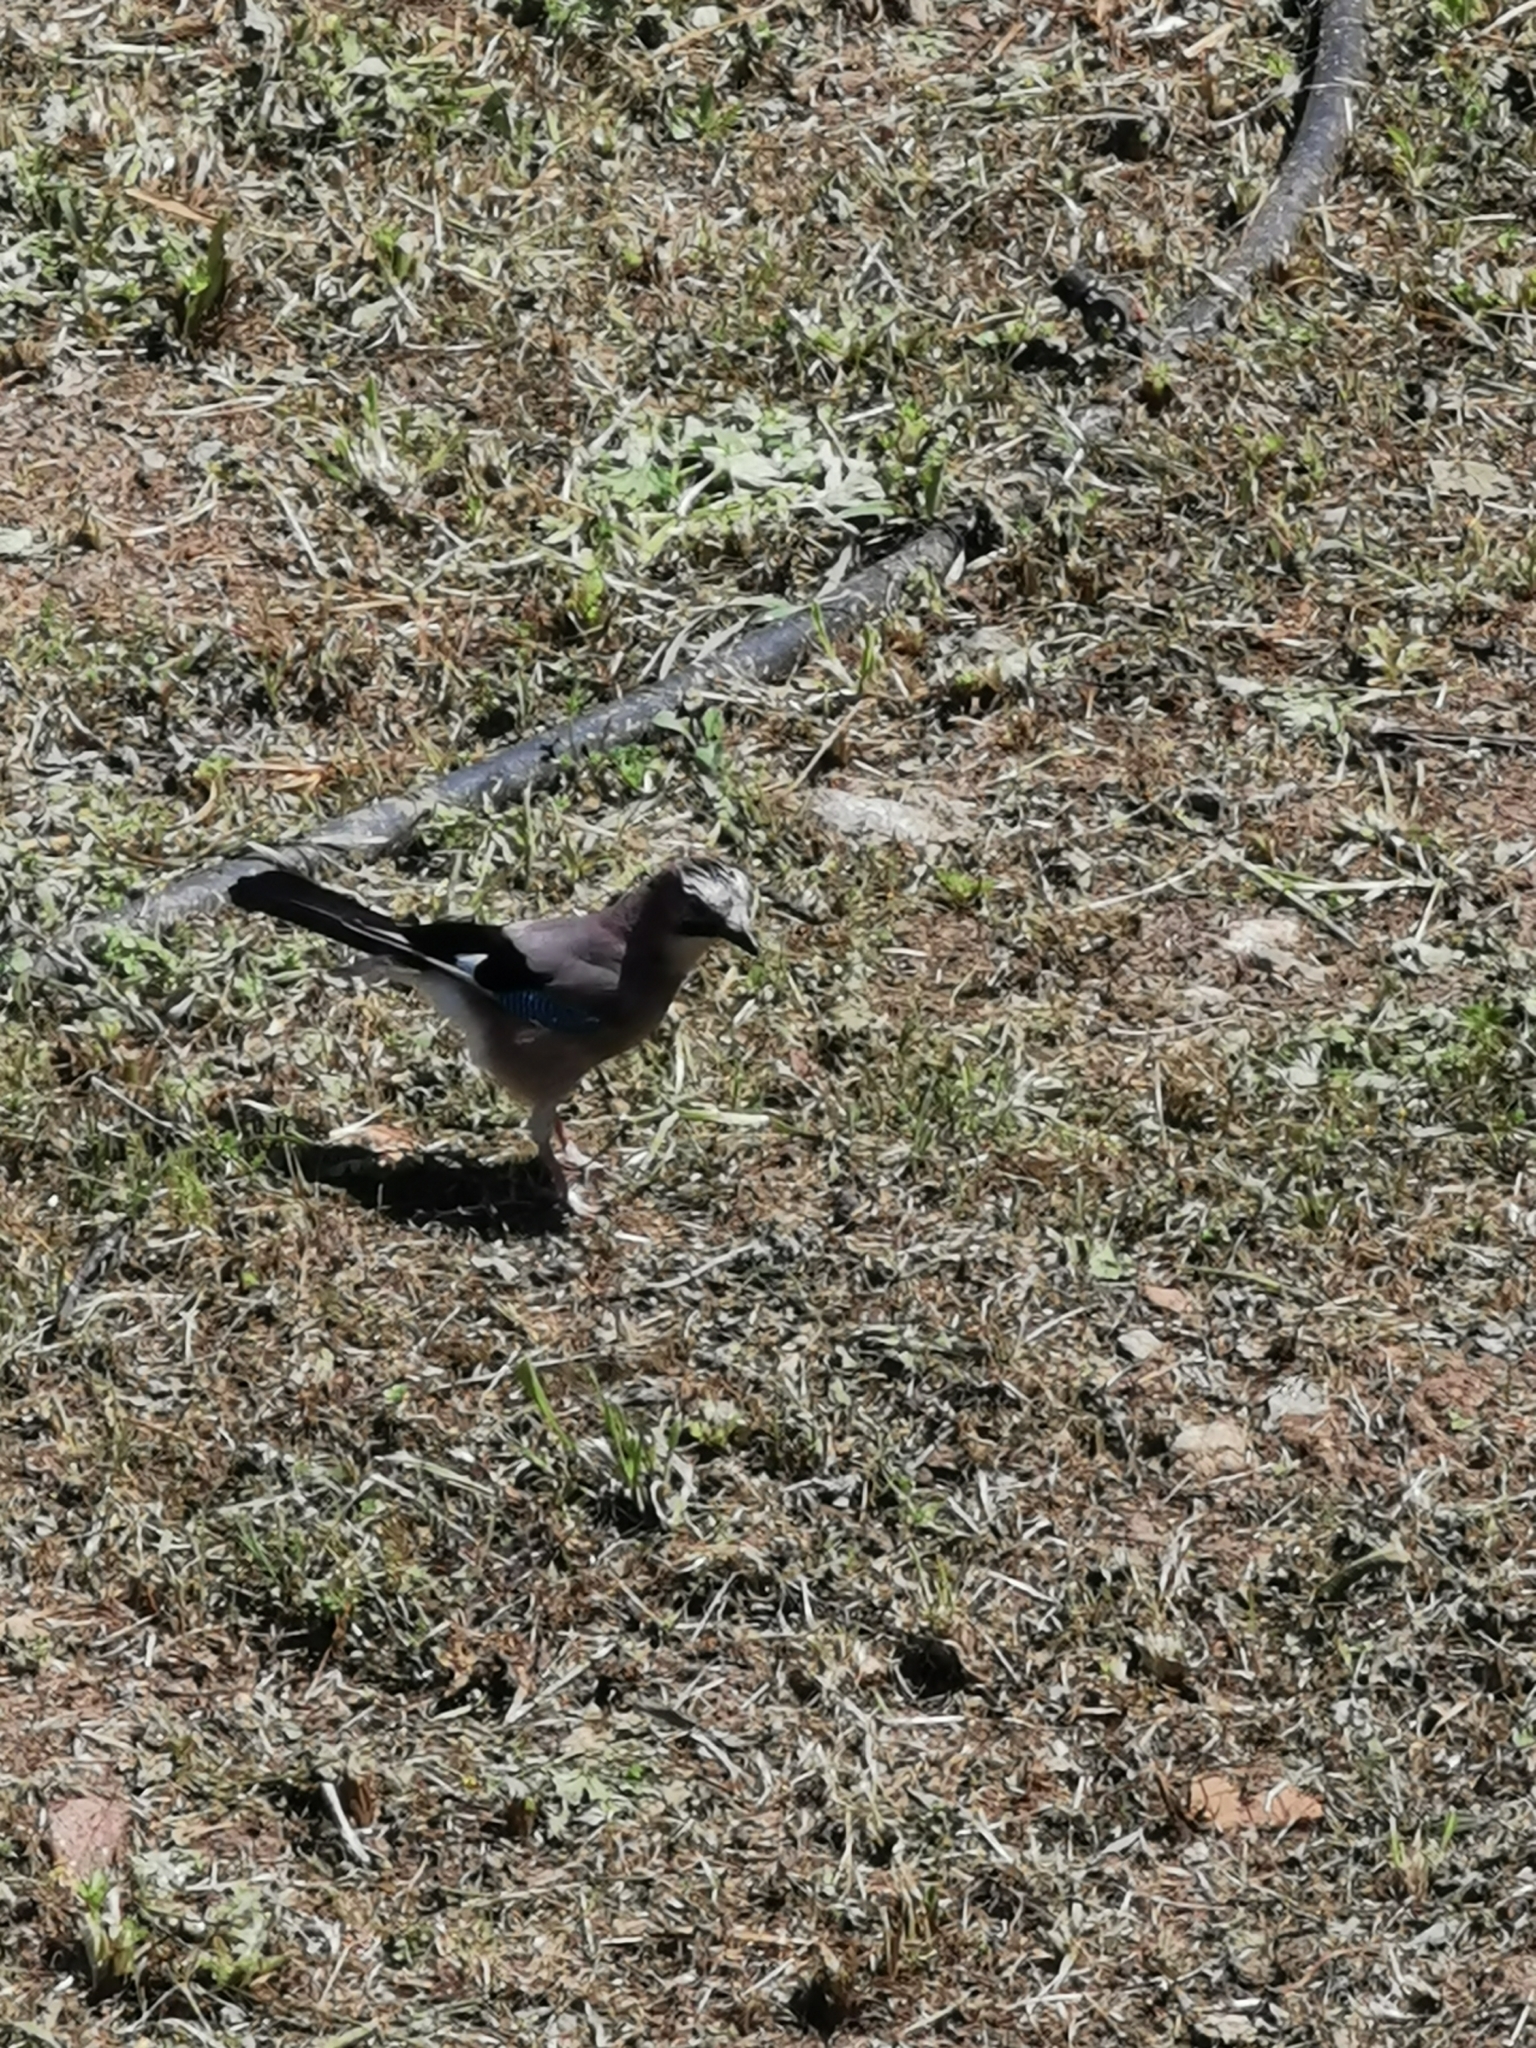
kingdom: Animalia
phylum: Chordata
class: Aves
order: Passeriformes
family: Corvidae
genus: Garrulus
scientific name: Garrulus glandarius
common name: Eurasian jay
